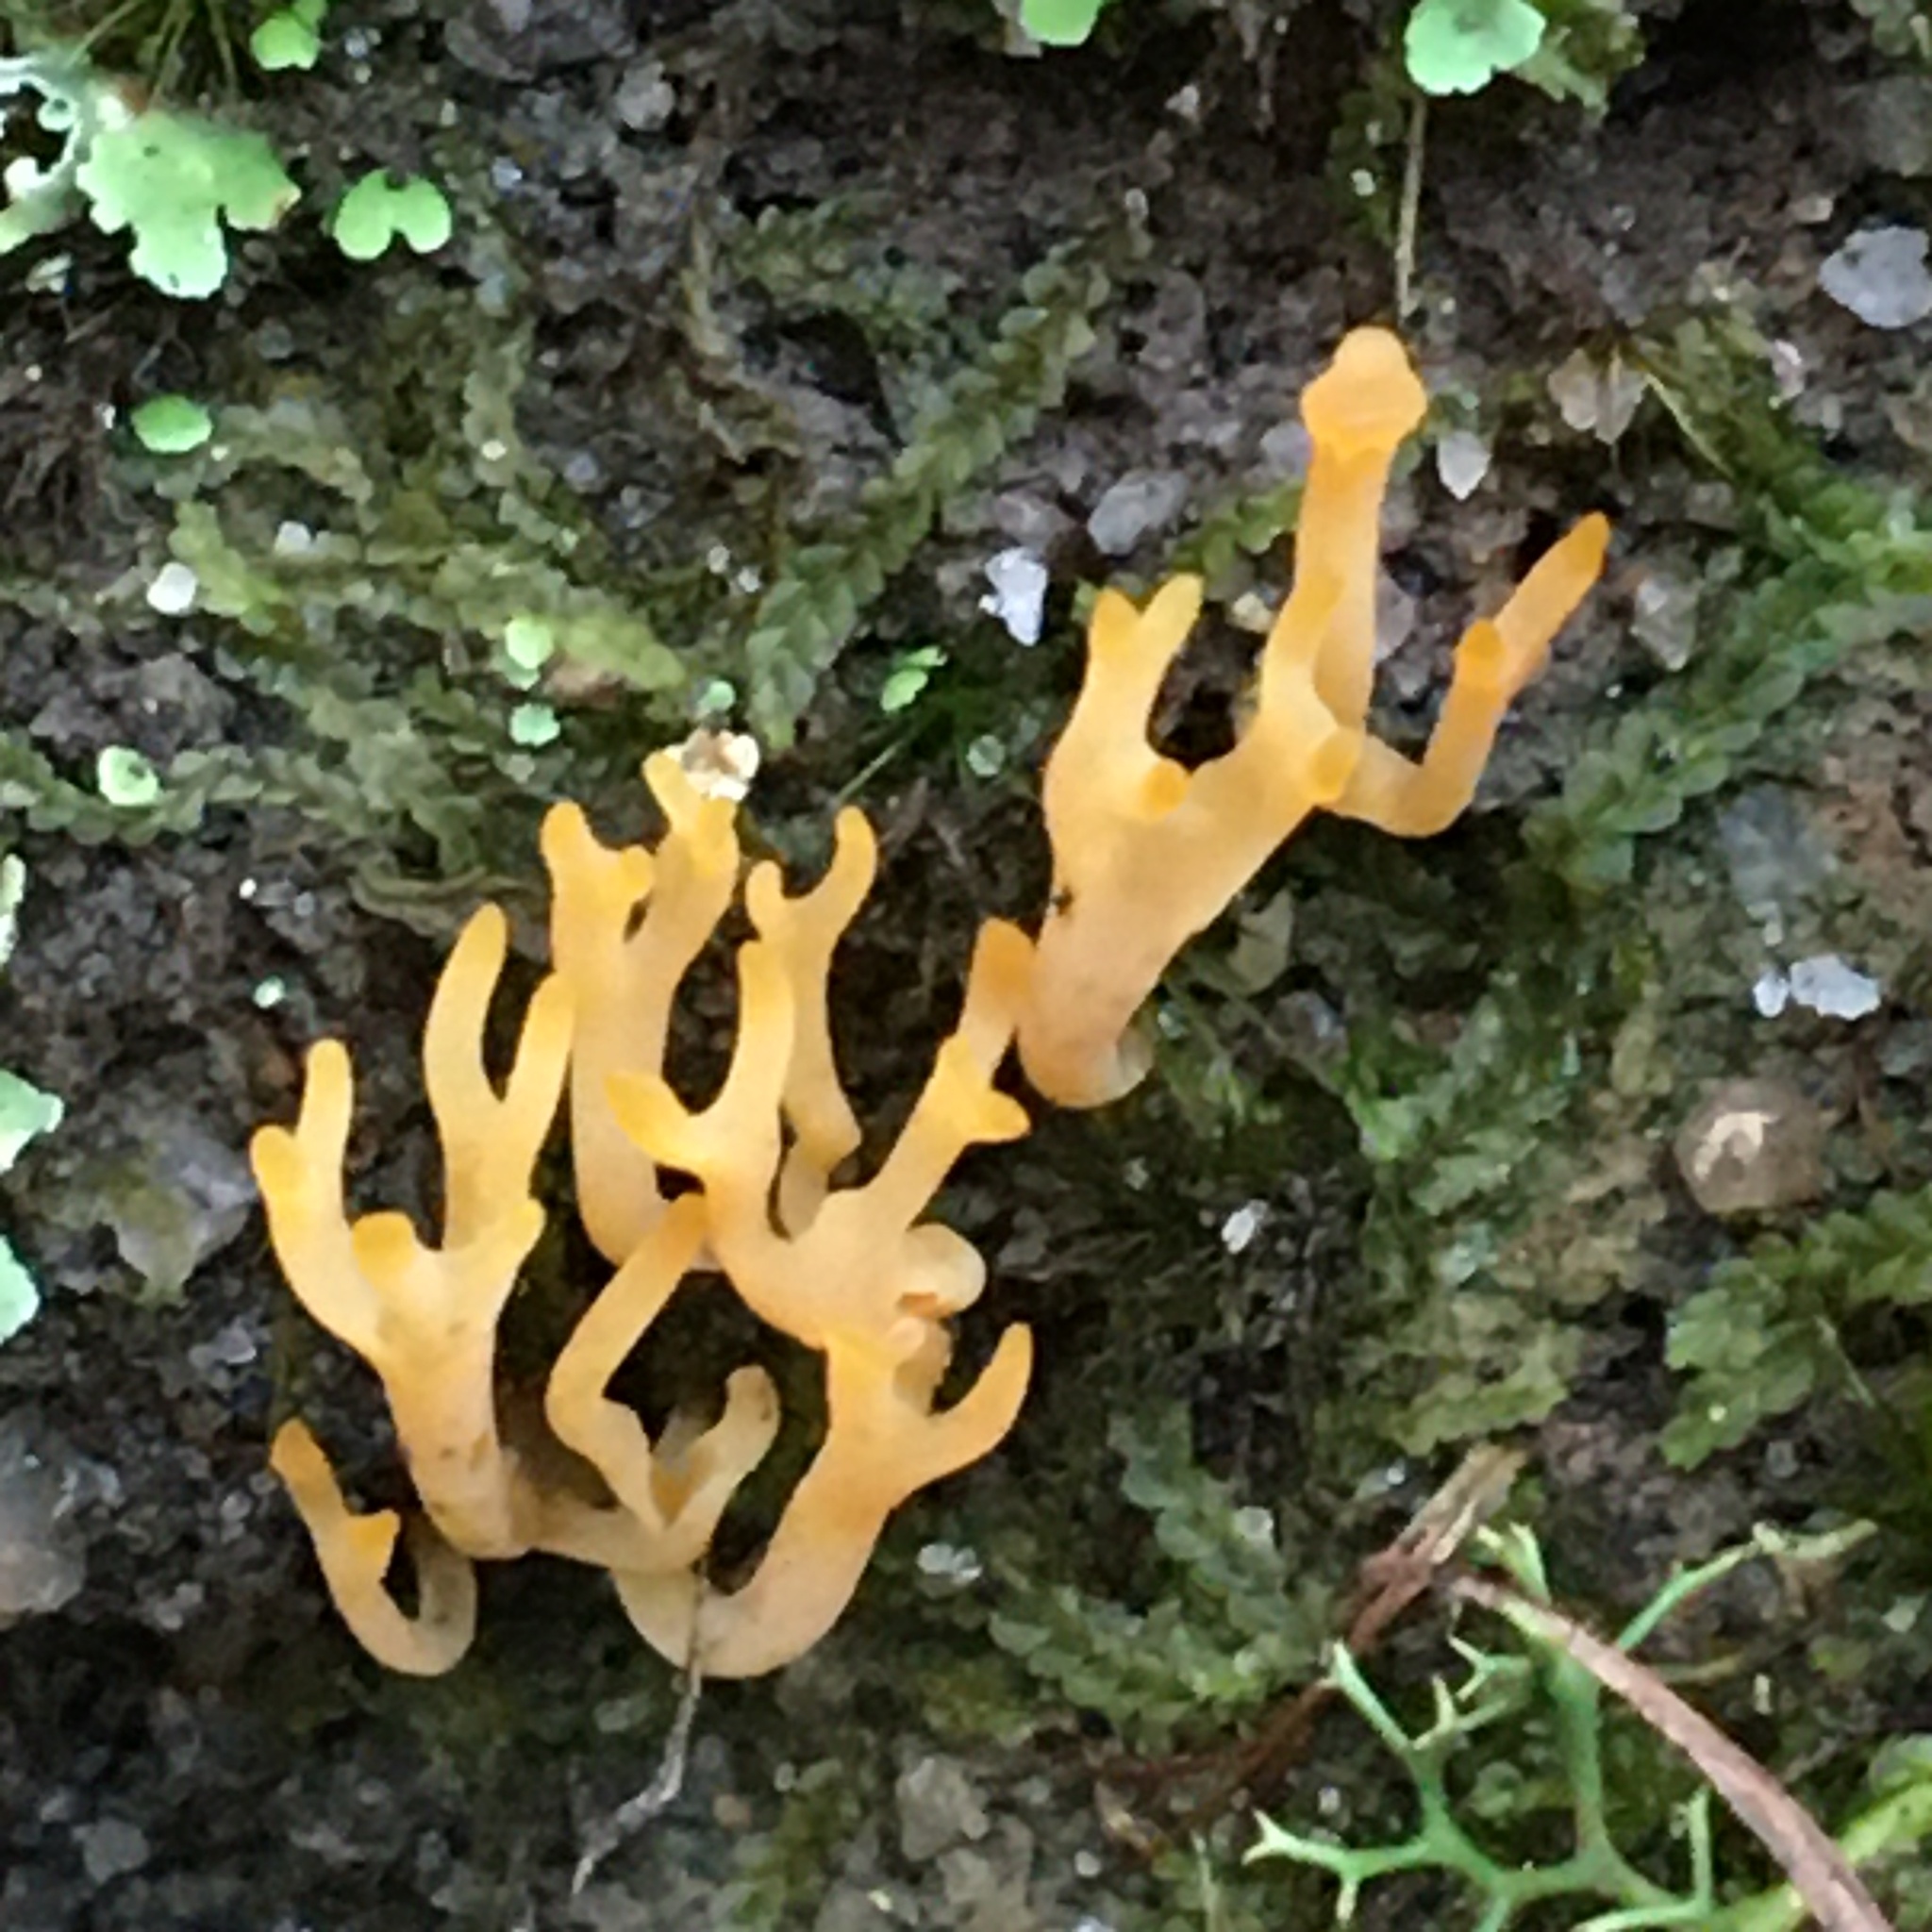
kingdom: Fungi
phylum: Basidiomycota
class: Agaricomycetes
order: Agaricales
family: Clavariaceae
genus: Ramariopsis
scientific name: Ramariopsis crocea
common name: Orange coral
